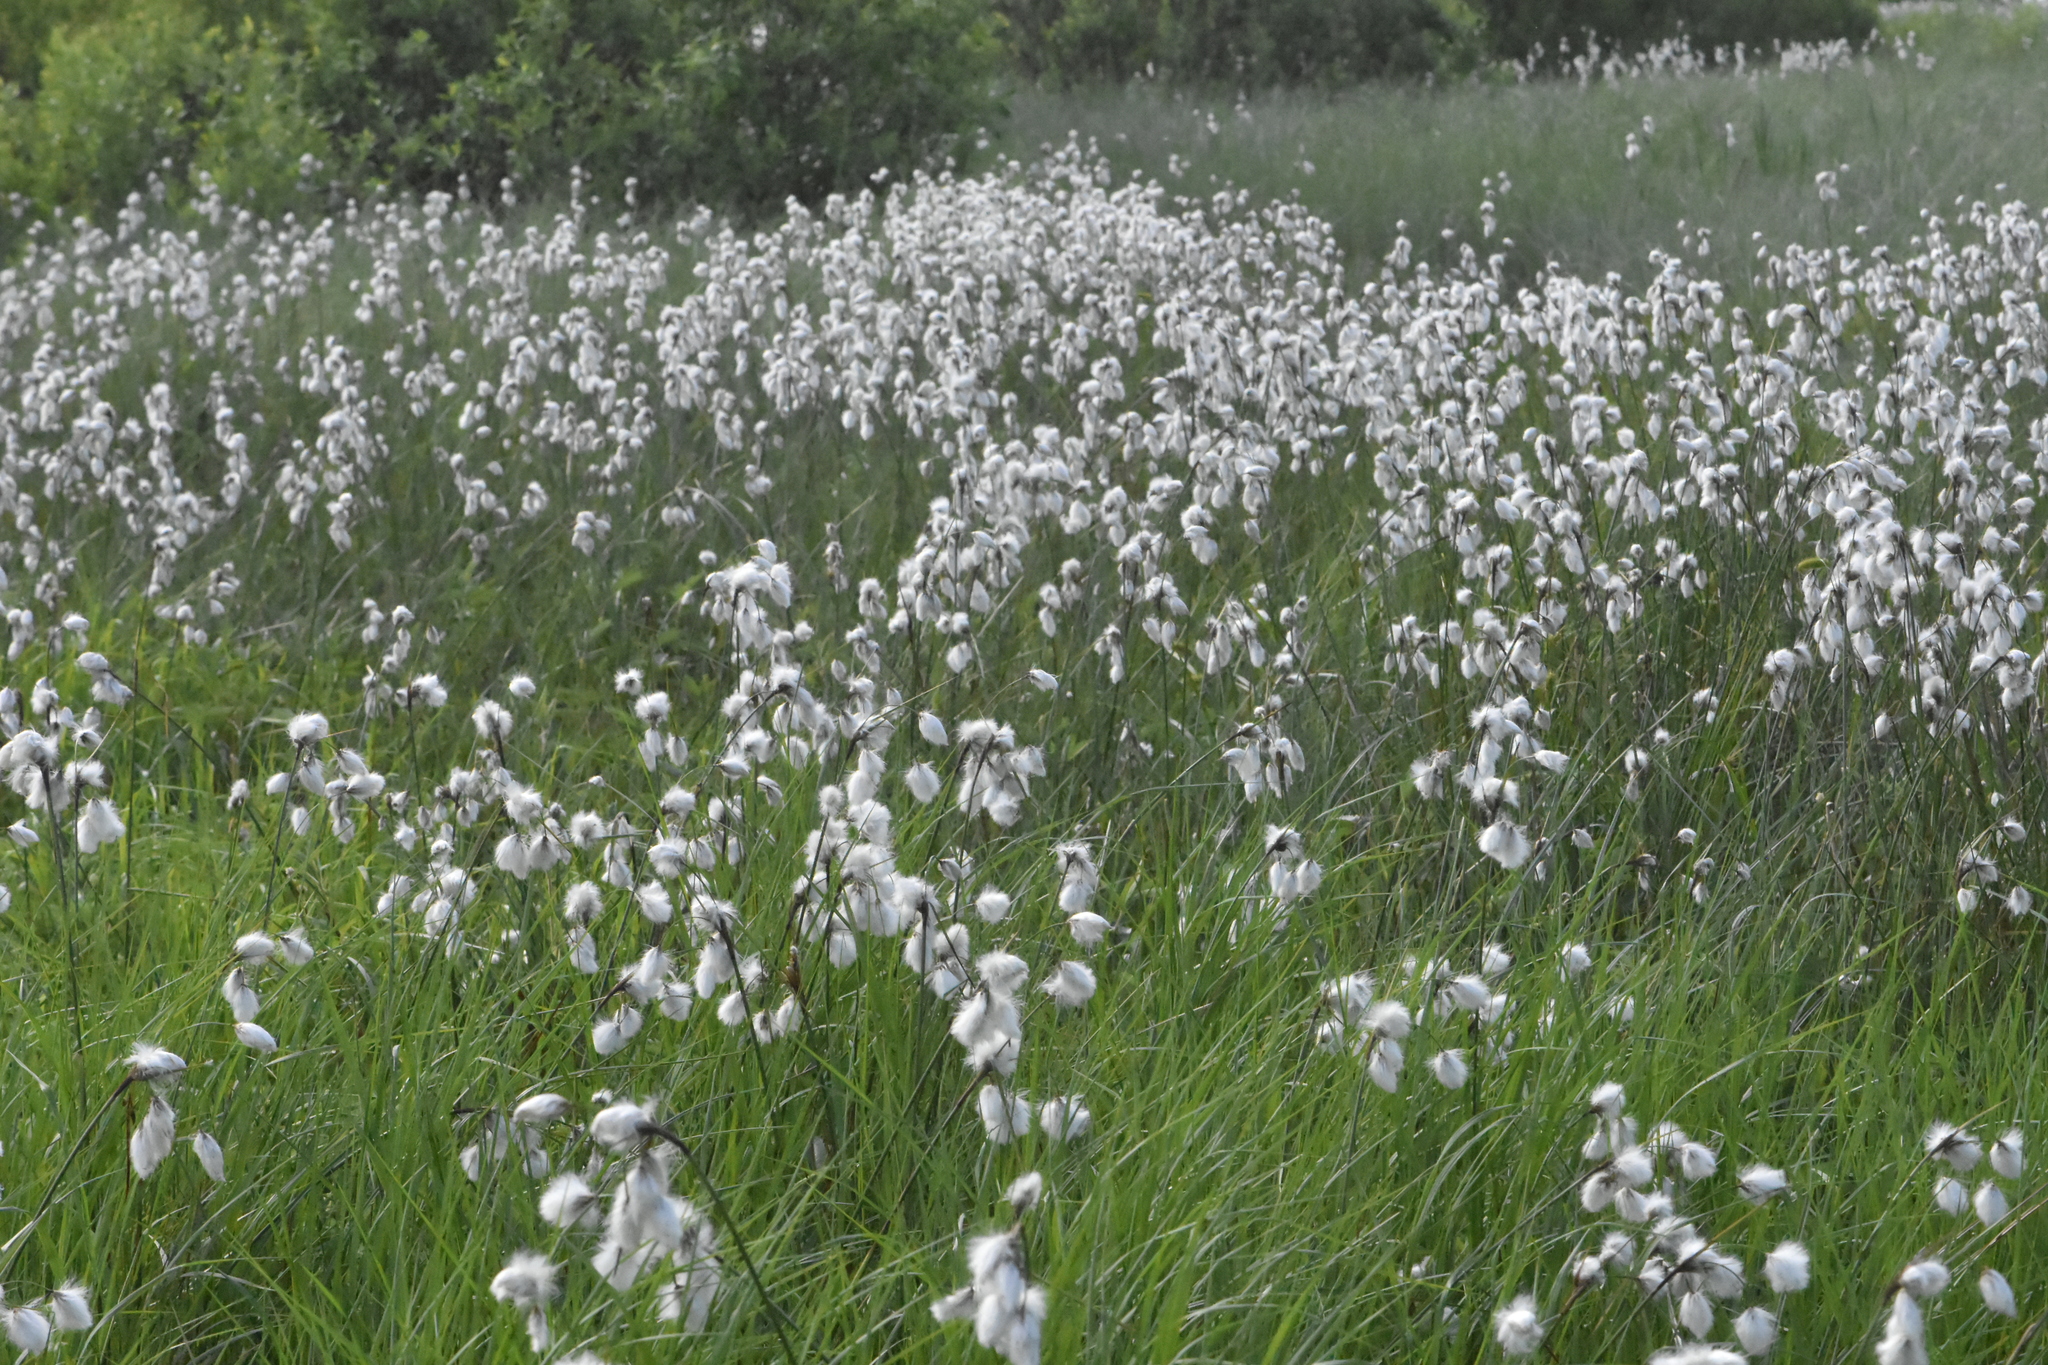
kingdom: Plantae
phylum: Tracheophyta
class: Liliopsida
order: Poales
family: Cyperaceae
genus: Eriophorum
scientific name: Eriophorum angustifolium
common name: Common cottongrass
